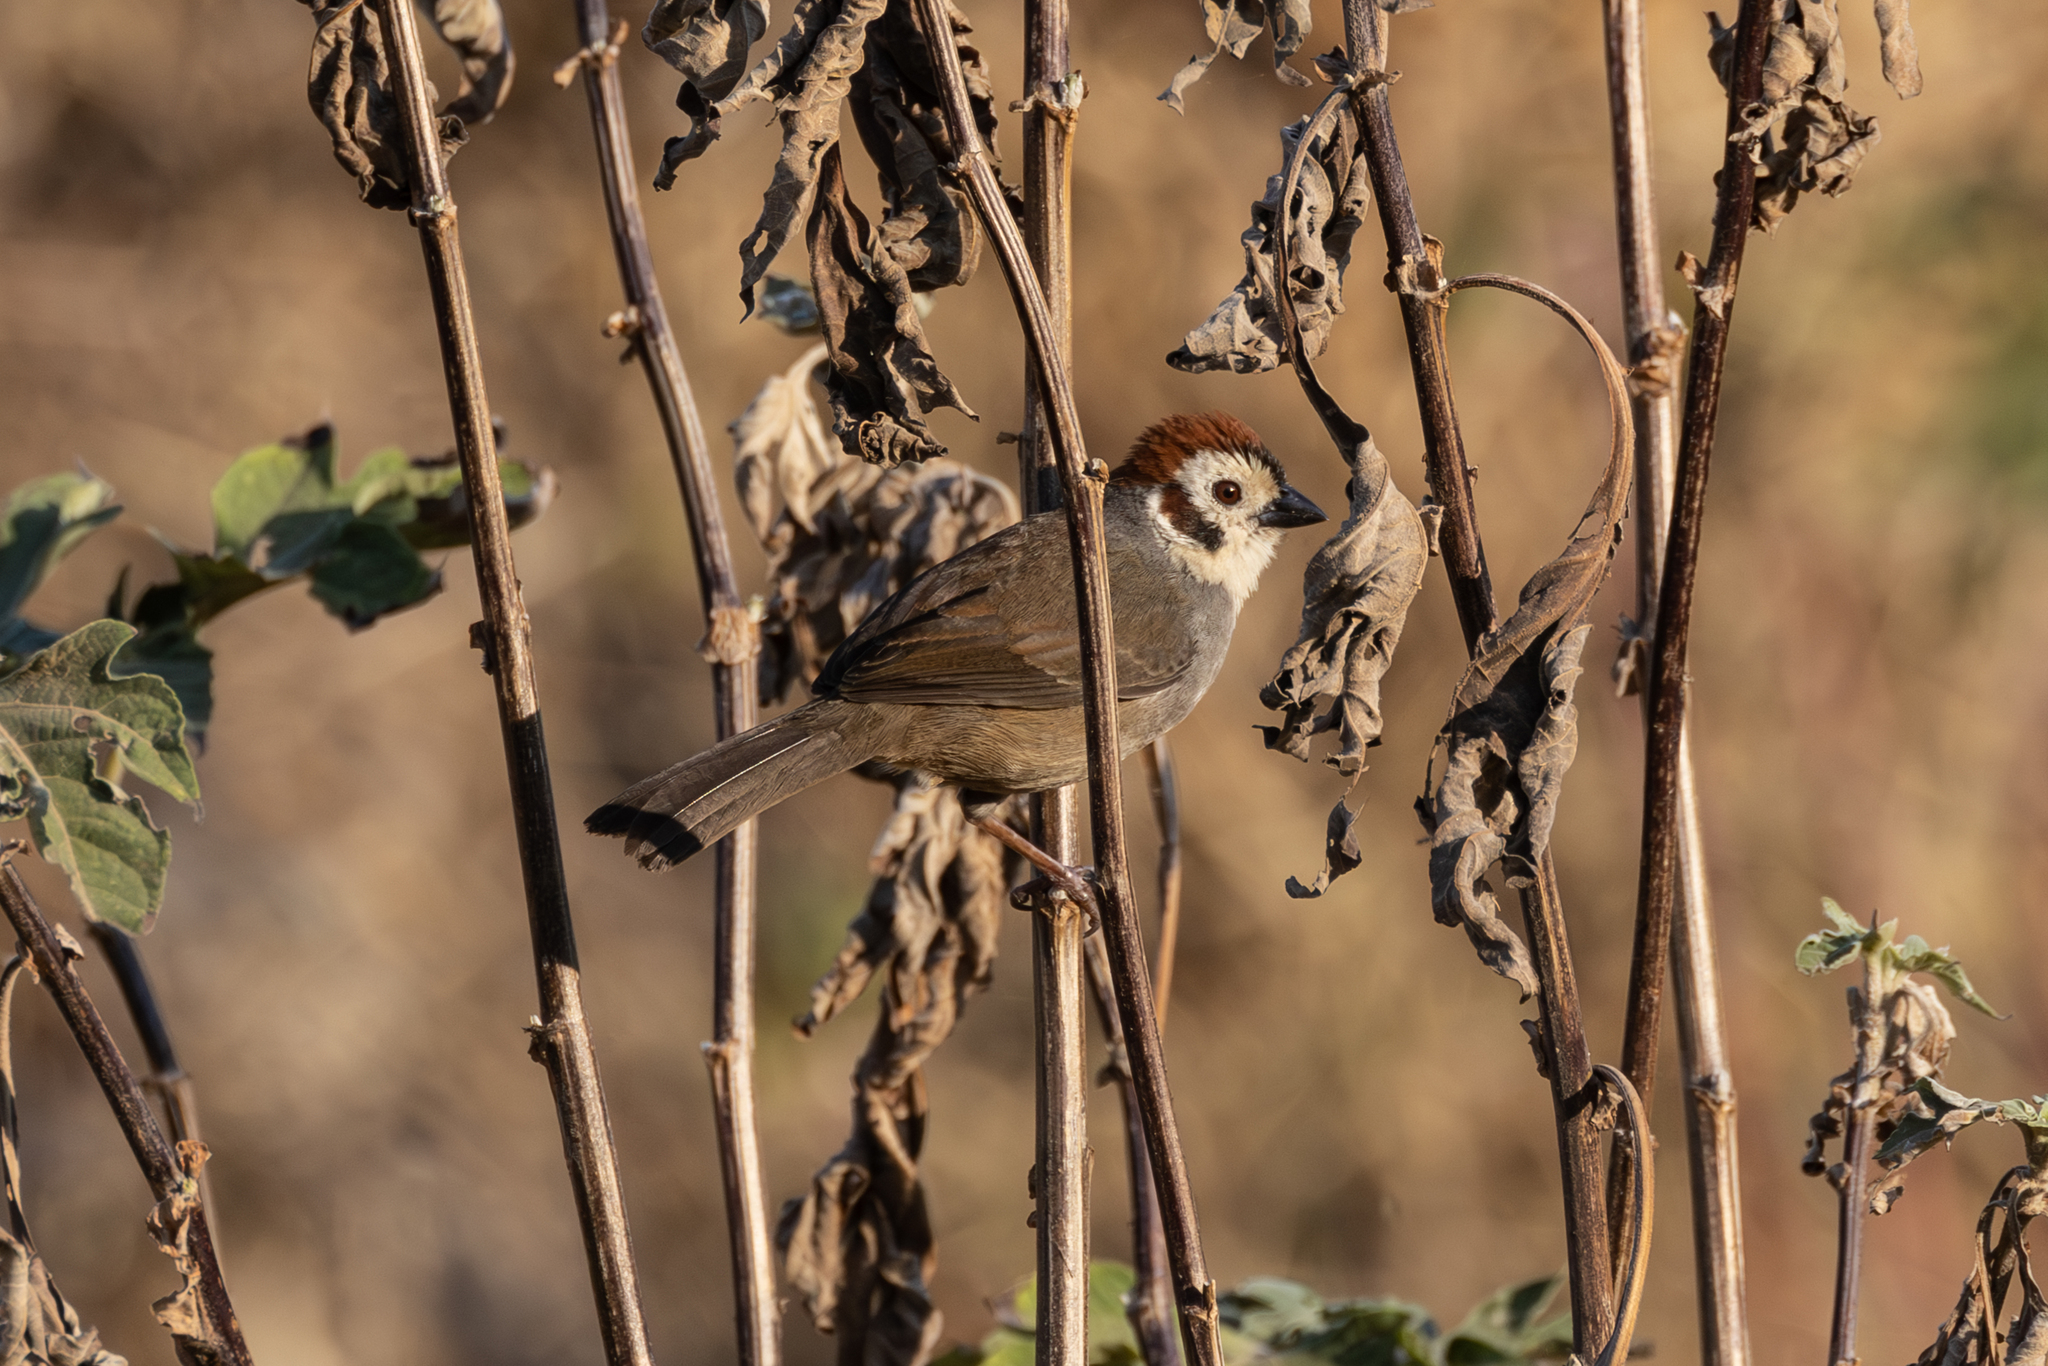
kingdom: Animalia
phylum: Chordata
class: Aves
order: Passeriformes
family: Passerellidae
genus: Melozone
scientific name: Melozone biarcuata
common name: Prevost's ground-sparrow
